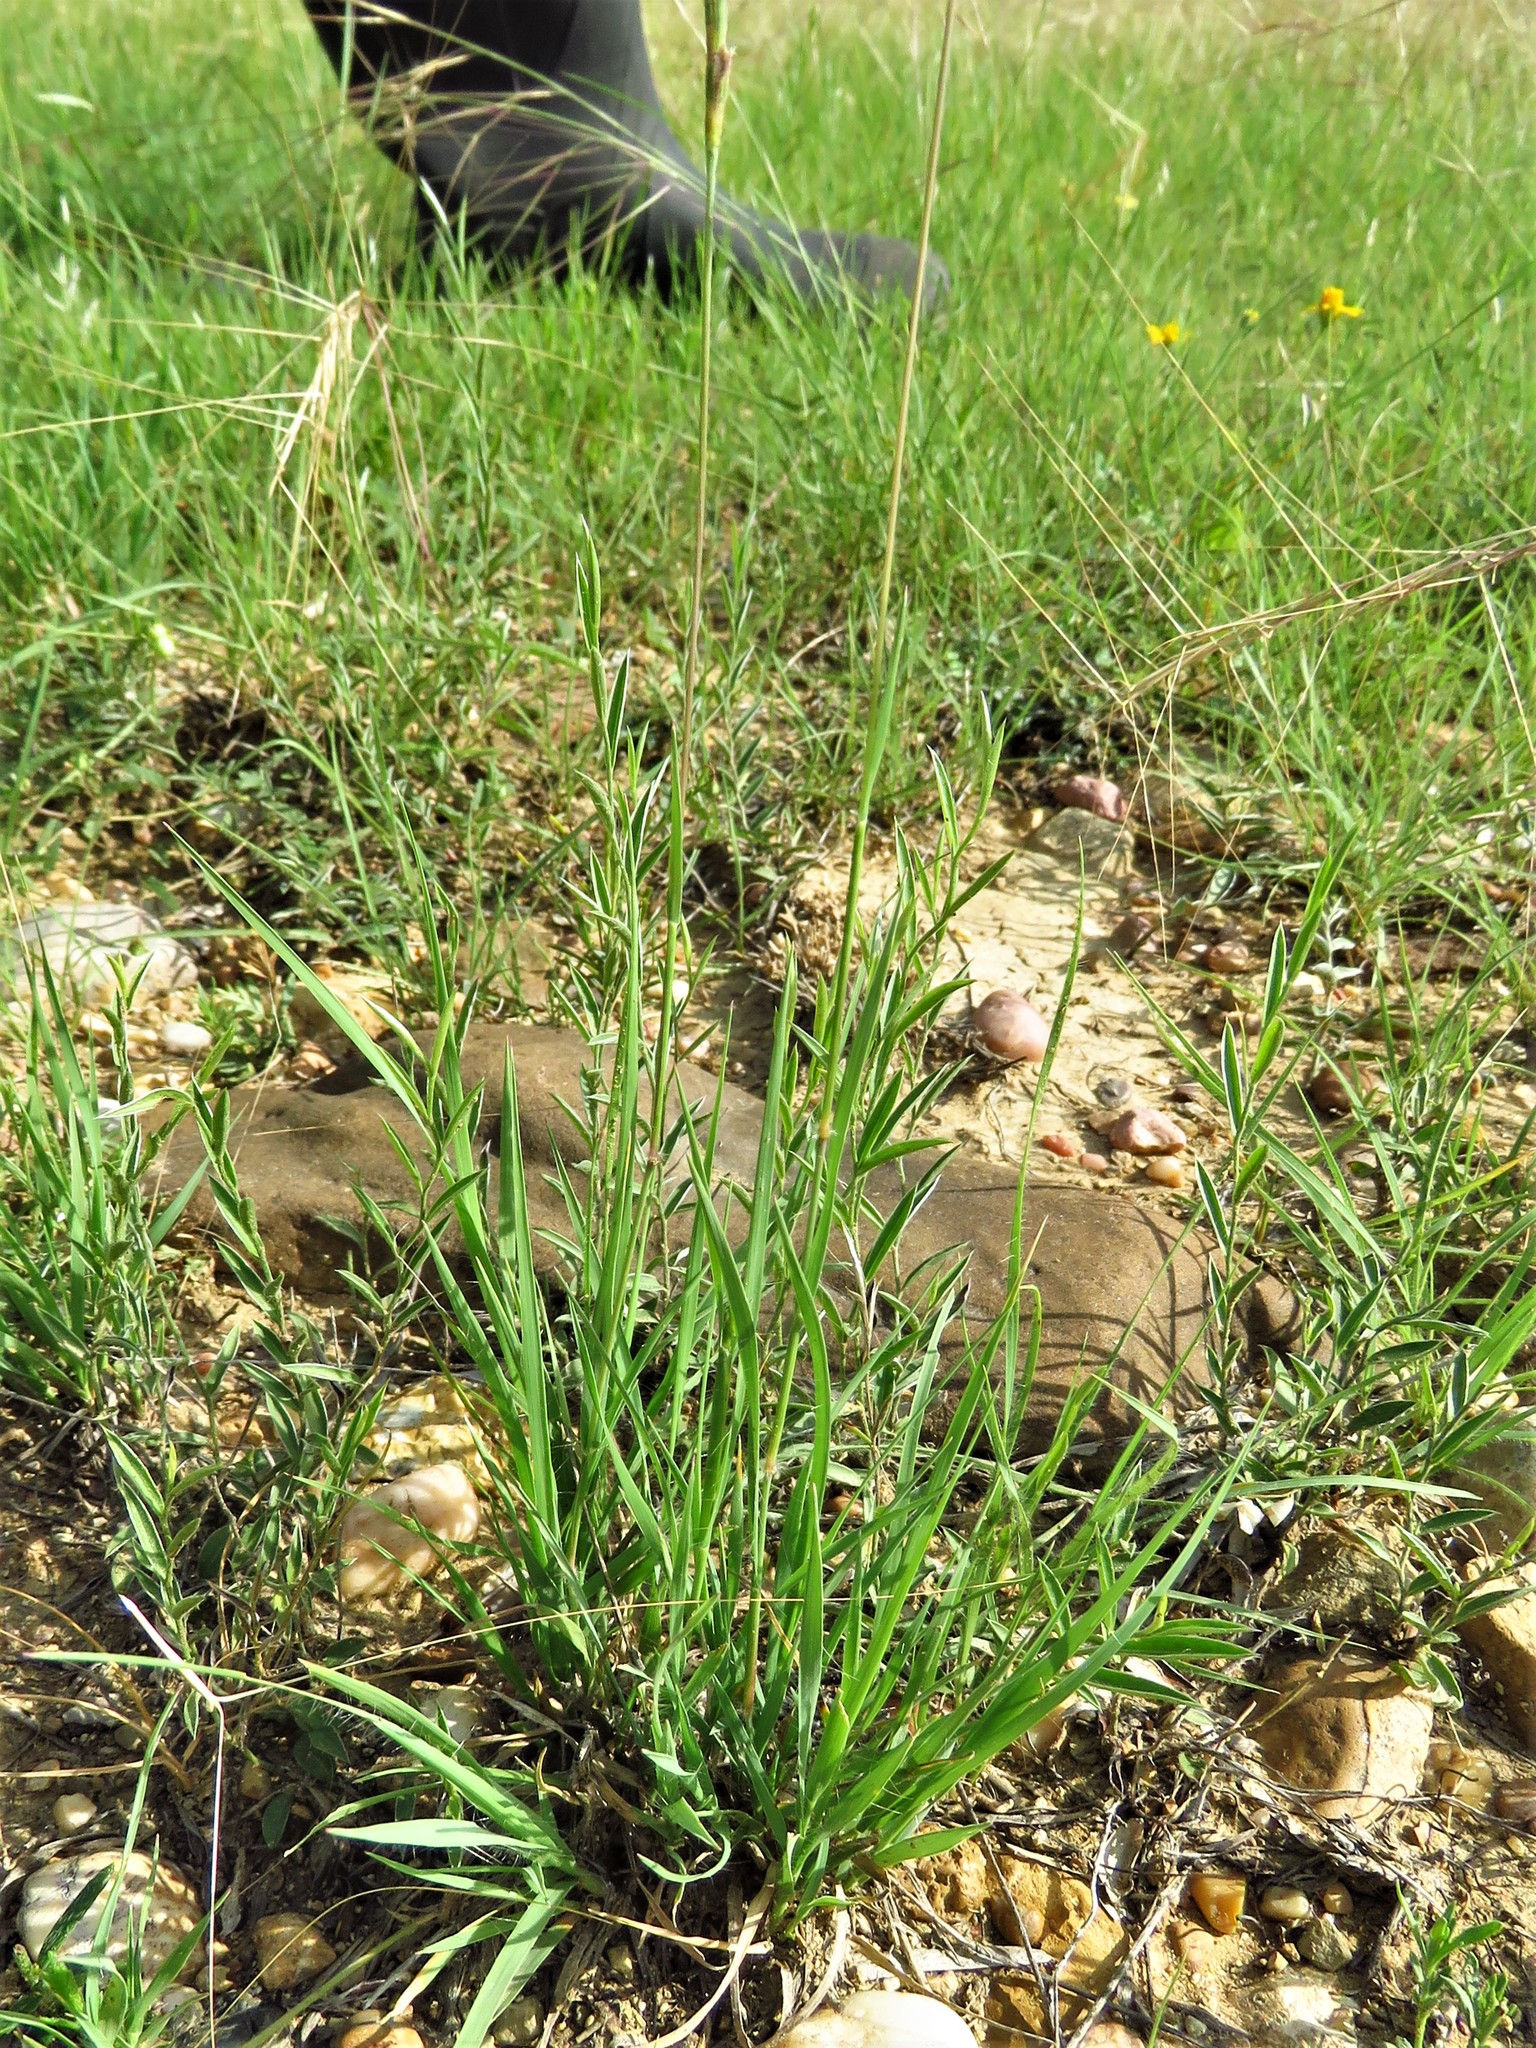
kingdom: Plantae
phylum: Tracheophyta
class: Liliopsida
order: Poales
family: Poaceae
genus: Hilaria
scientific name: Hilaria belangeri
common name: Curly-mesquite
